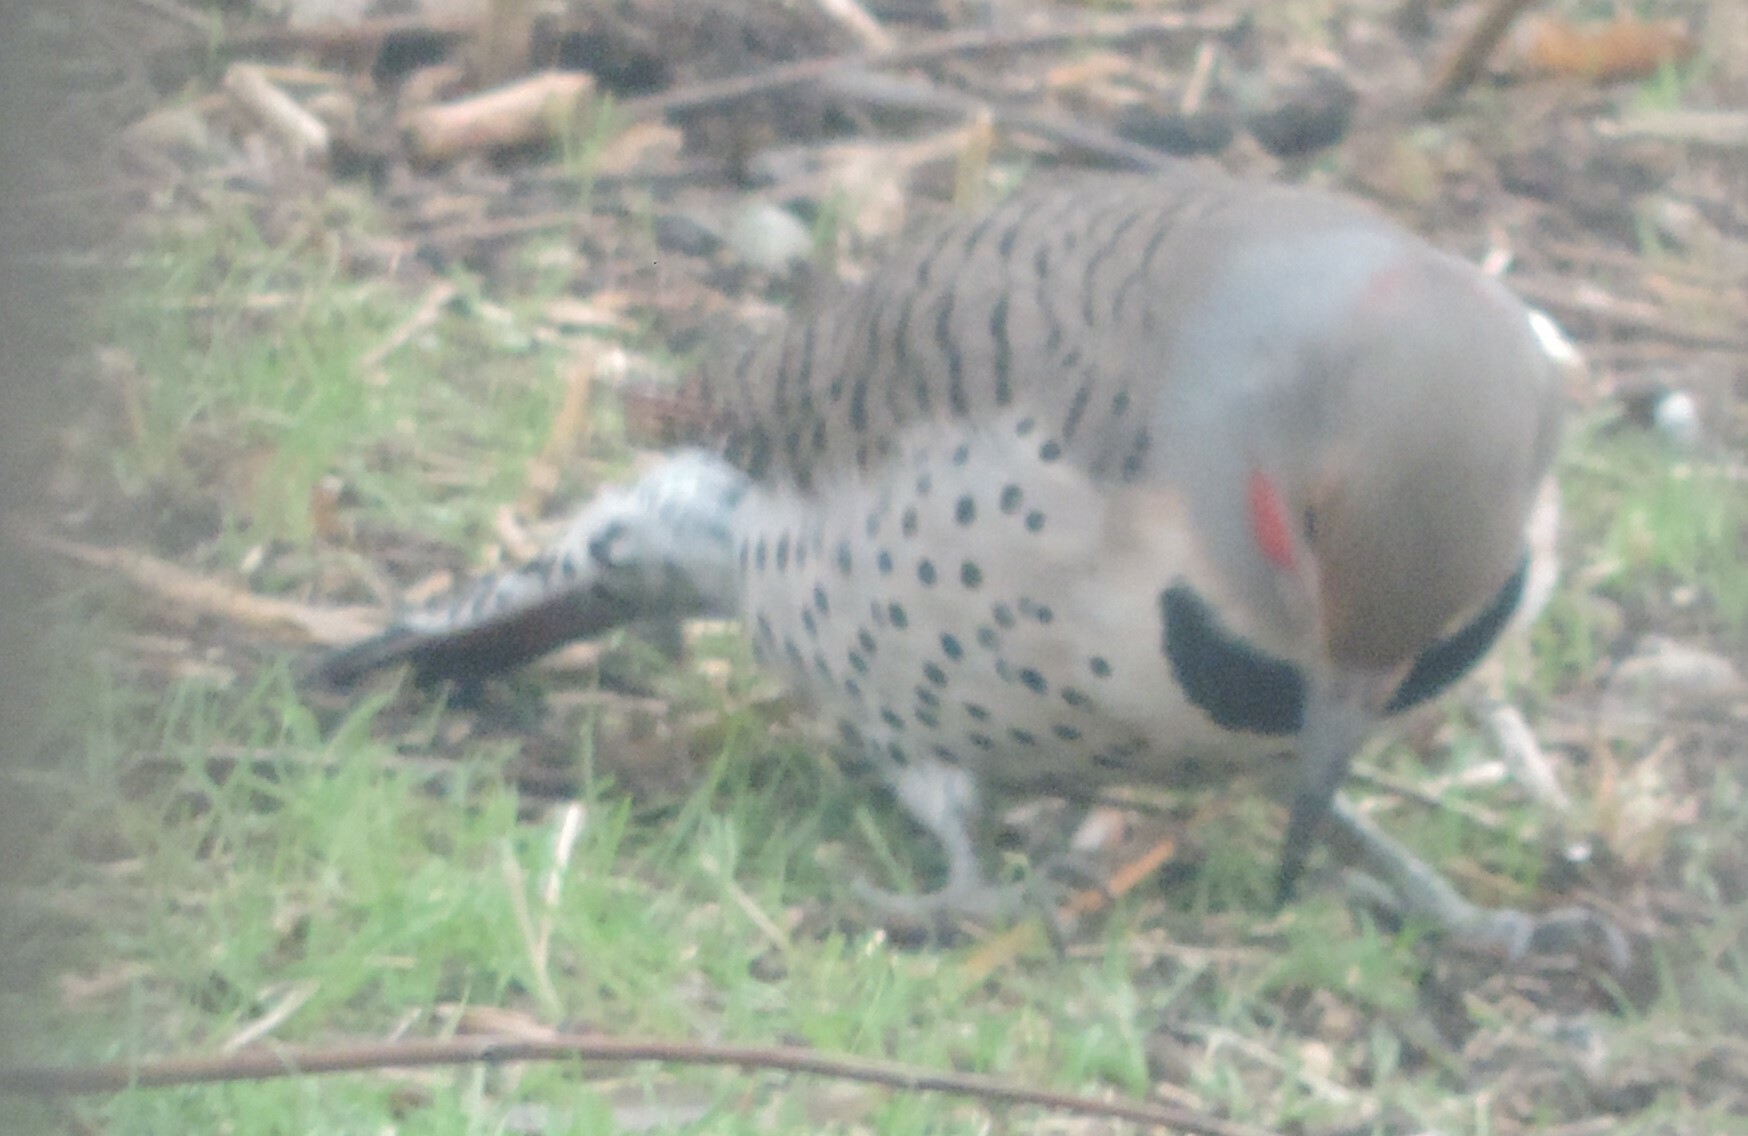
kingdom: Animalia
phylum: Chordata
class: Aves
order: Piciformes
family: Picidae
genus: Colaptes
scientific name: Colaptes auratus
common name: Northern flicker
